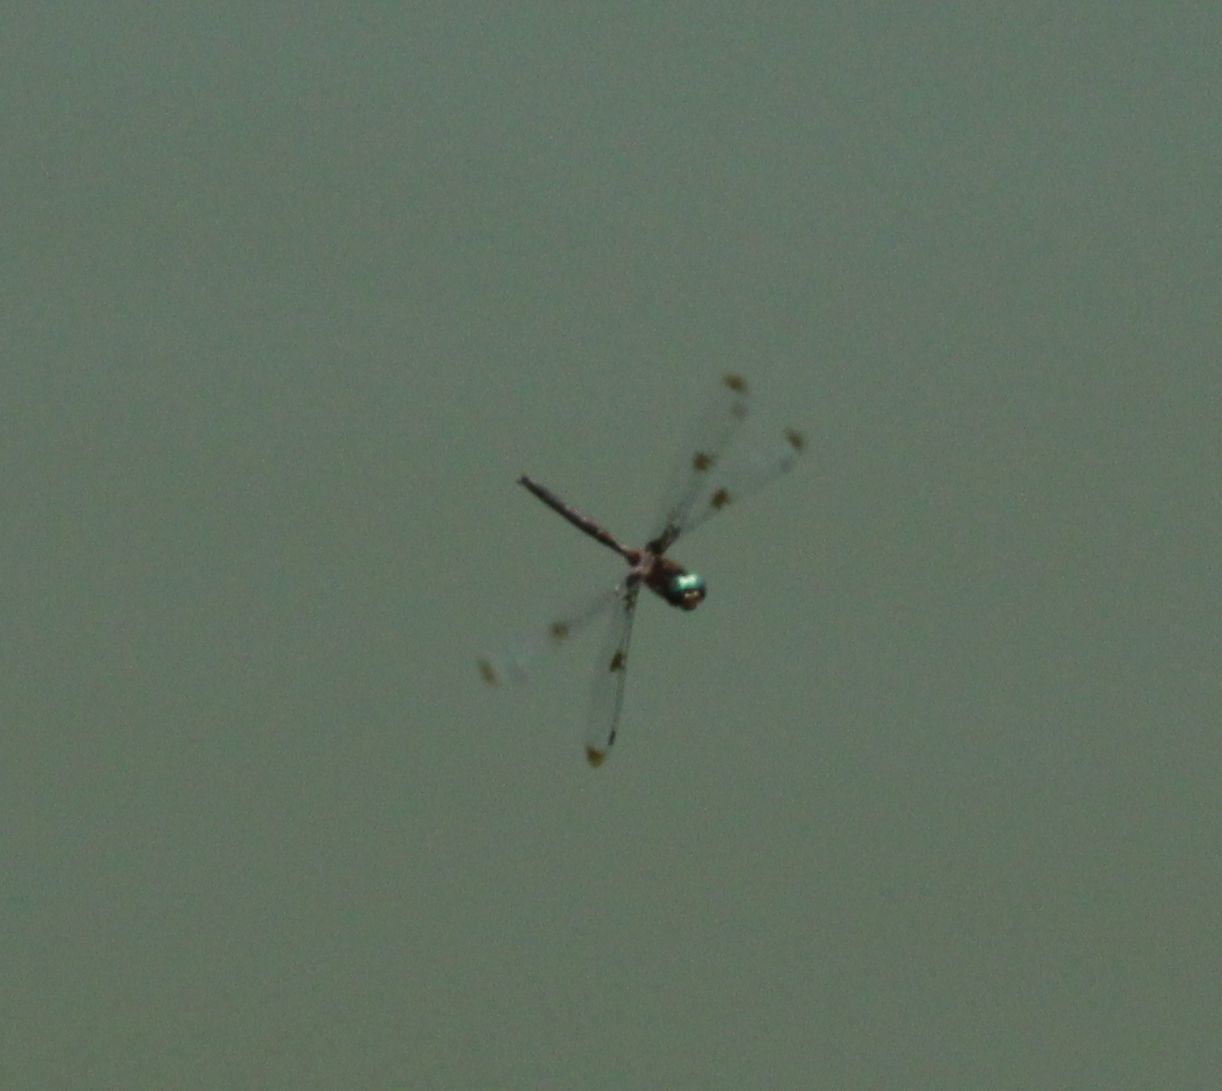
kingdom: Animalia
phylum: Arthropoda
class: Insecta
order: Odonata
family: Corduliidae
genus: Epitheca
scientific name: Epitheca princeps
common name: Prince baskettail
